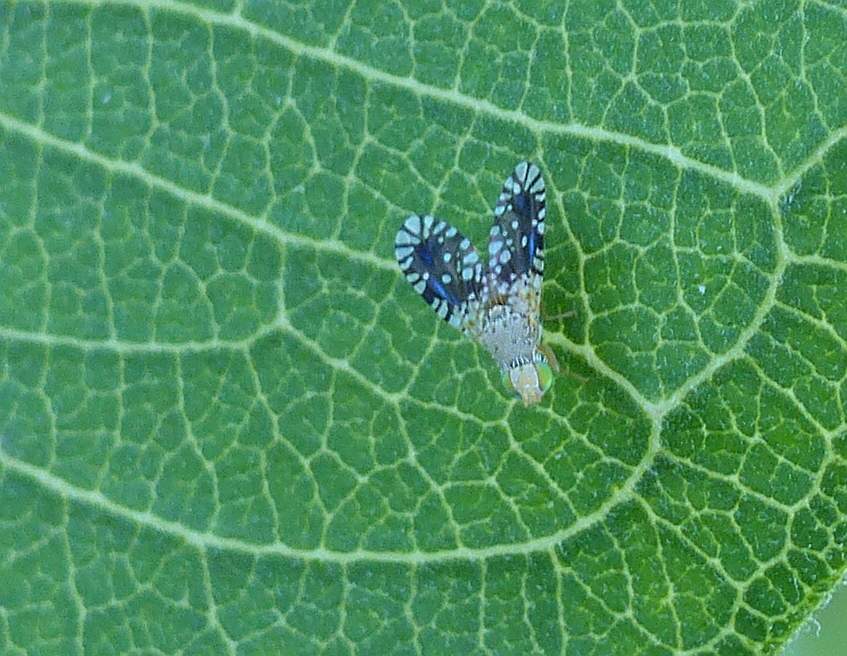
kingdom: Animalia
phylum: Arthropoda
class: Insecta
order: Diptera
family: Tephritidae
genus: Euaresta
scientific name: Euaresta bella
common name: Common ragweed fruit fly
